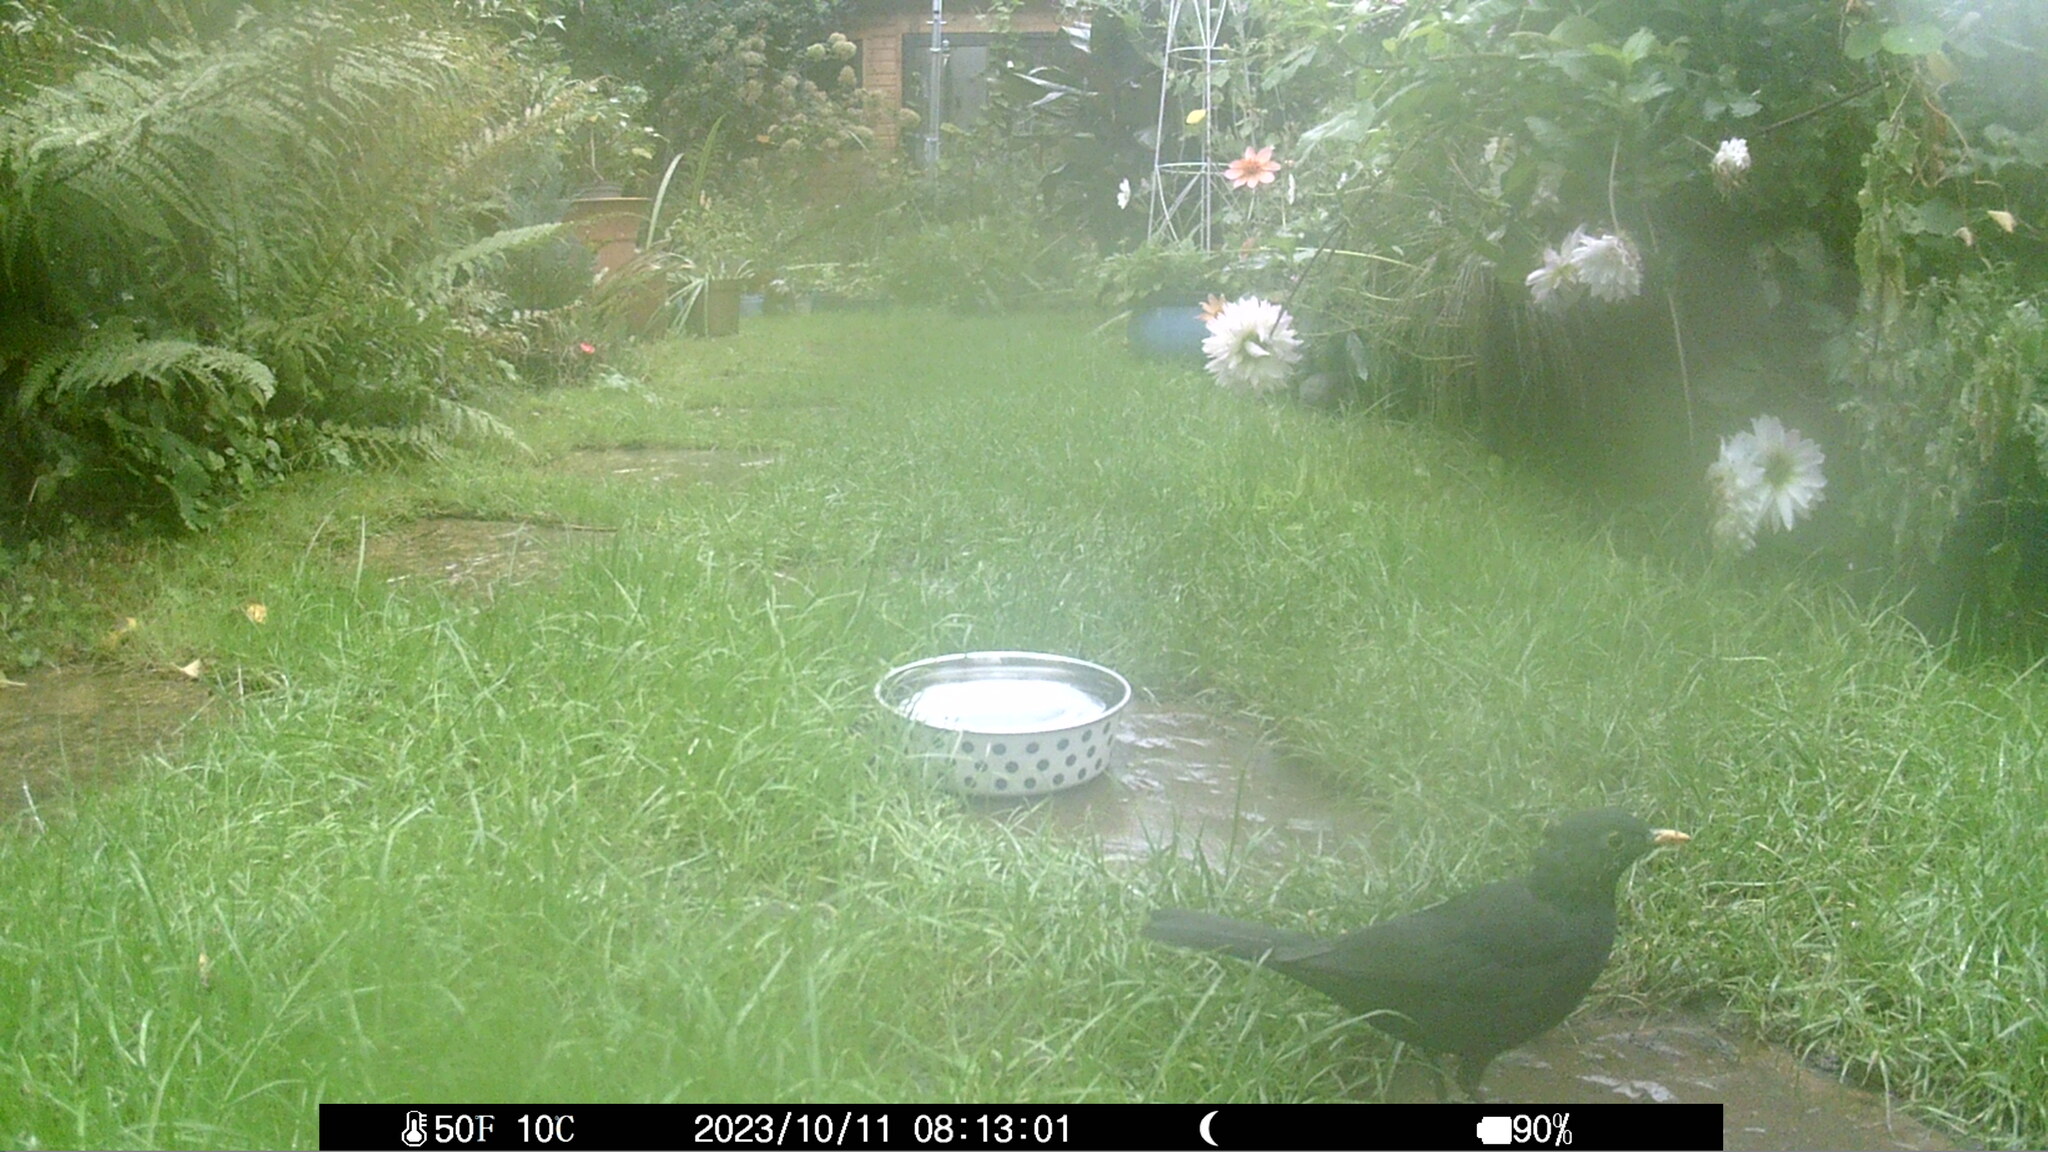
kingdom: Animalia
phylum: Chordata
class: Aves
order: Passeriformes
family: Turdidae
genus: Turdus
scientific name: Turdus merula
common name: Common blackbird
